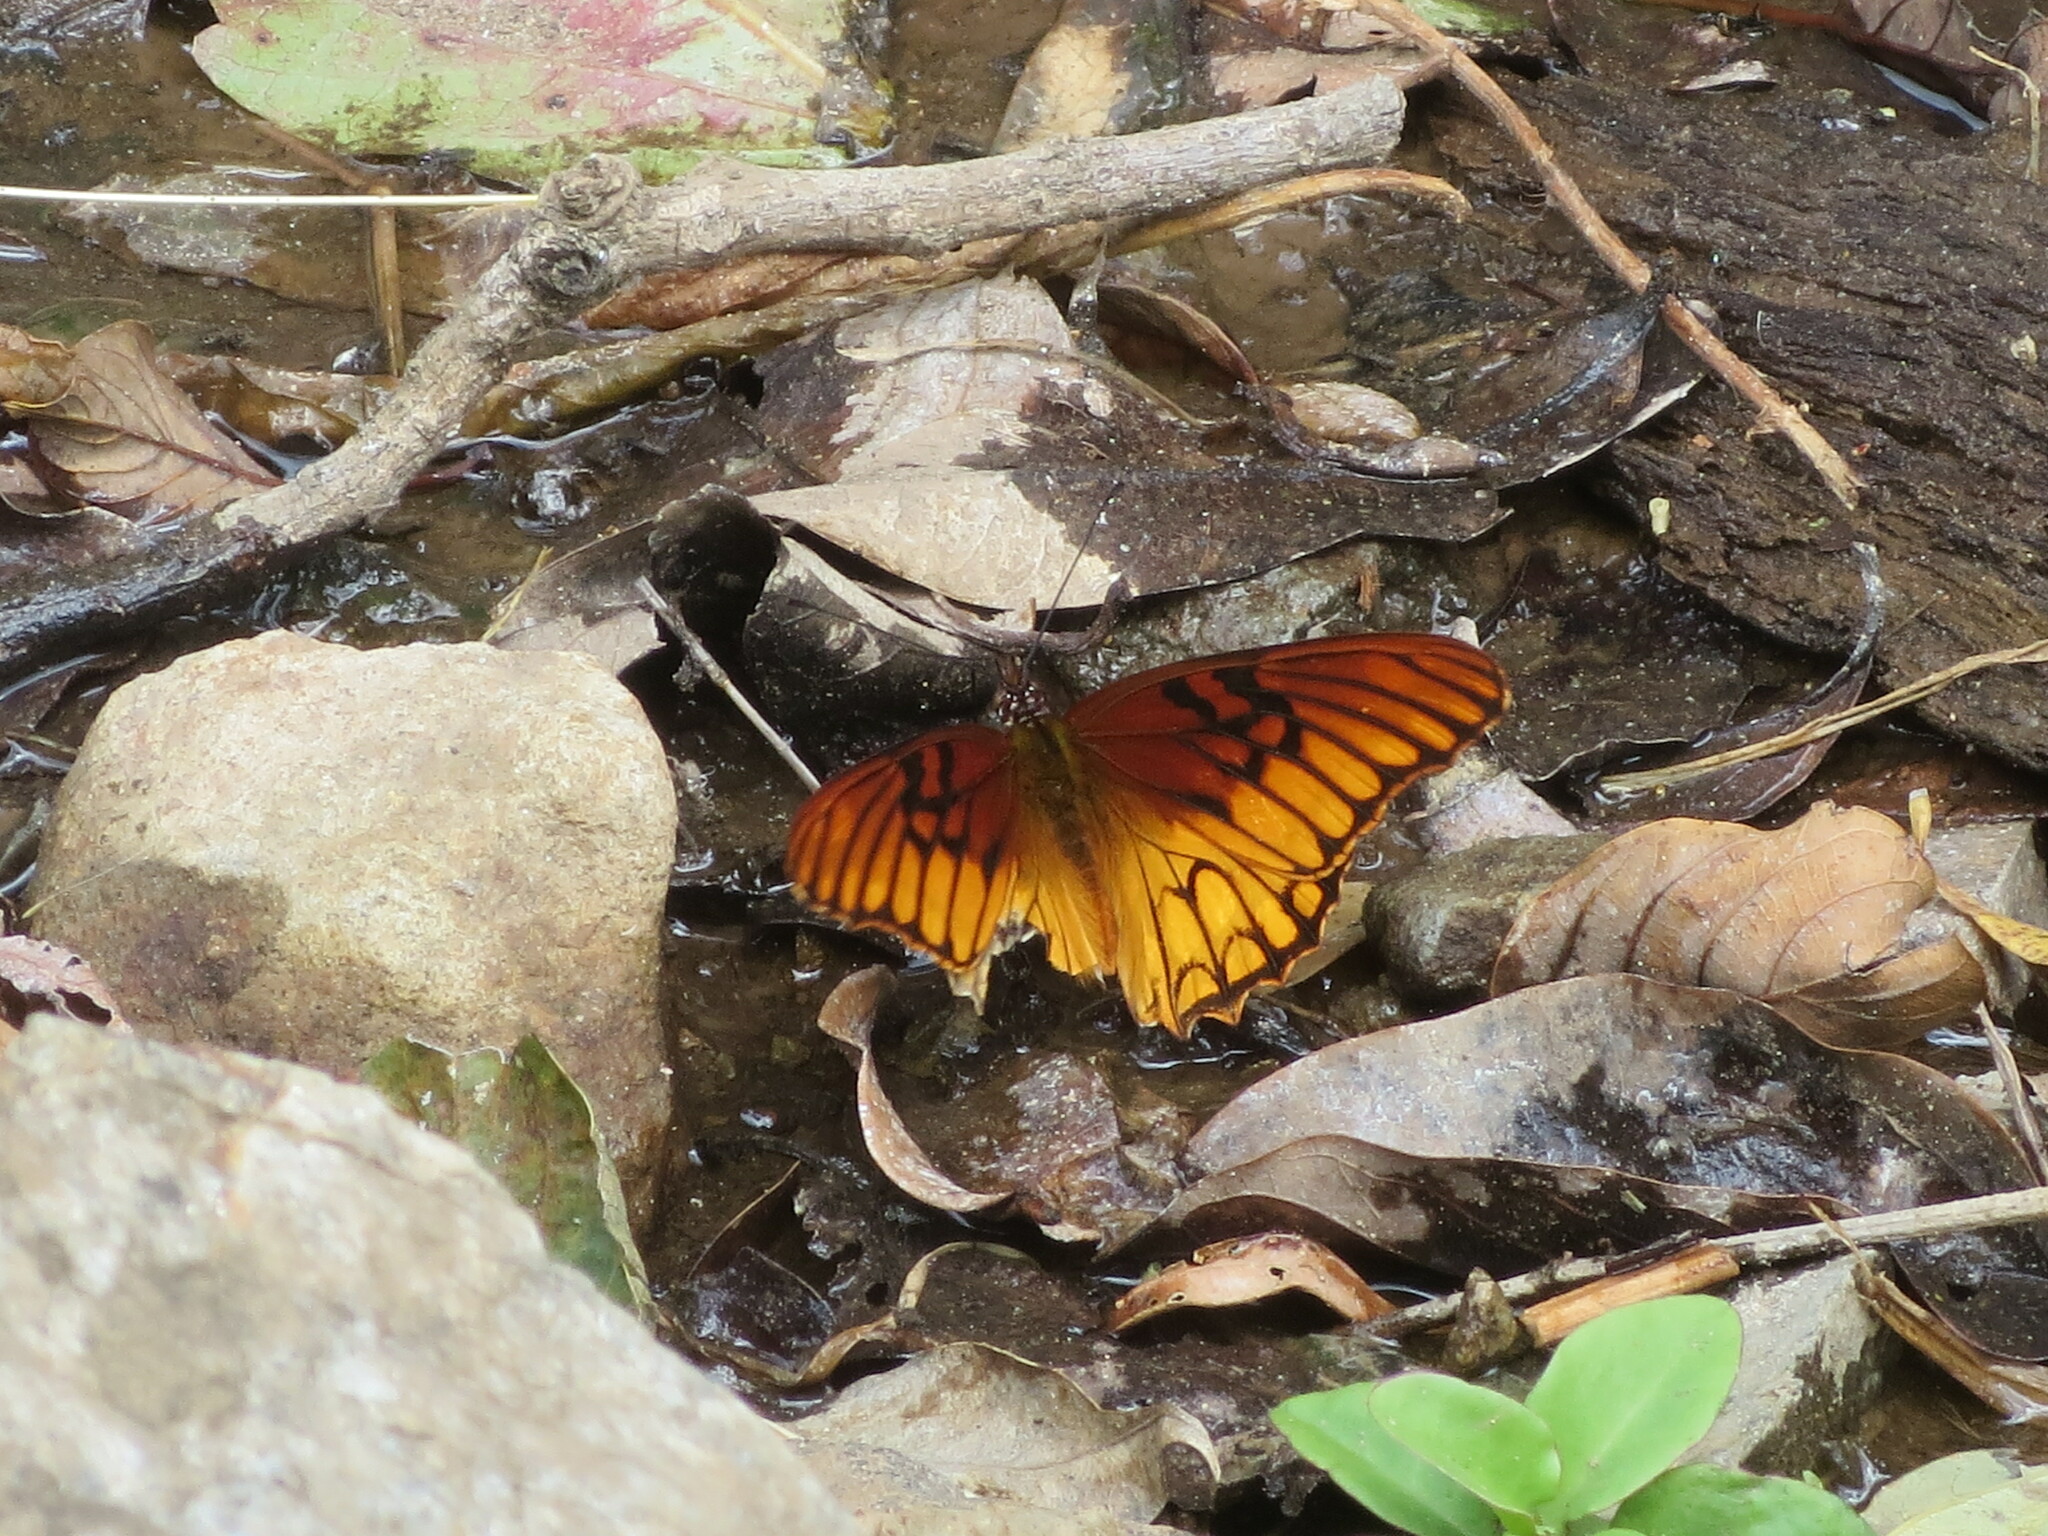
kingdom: Animalia
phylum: Arthropoda
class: Insecta
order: Lepidoptera
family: Nymphalidae
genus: Dione
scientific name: Dione moneta
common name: Mexican silverspot
